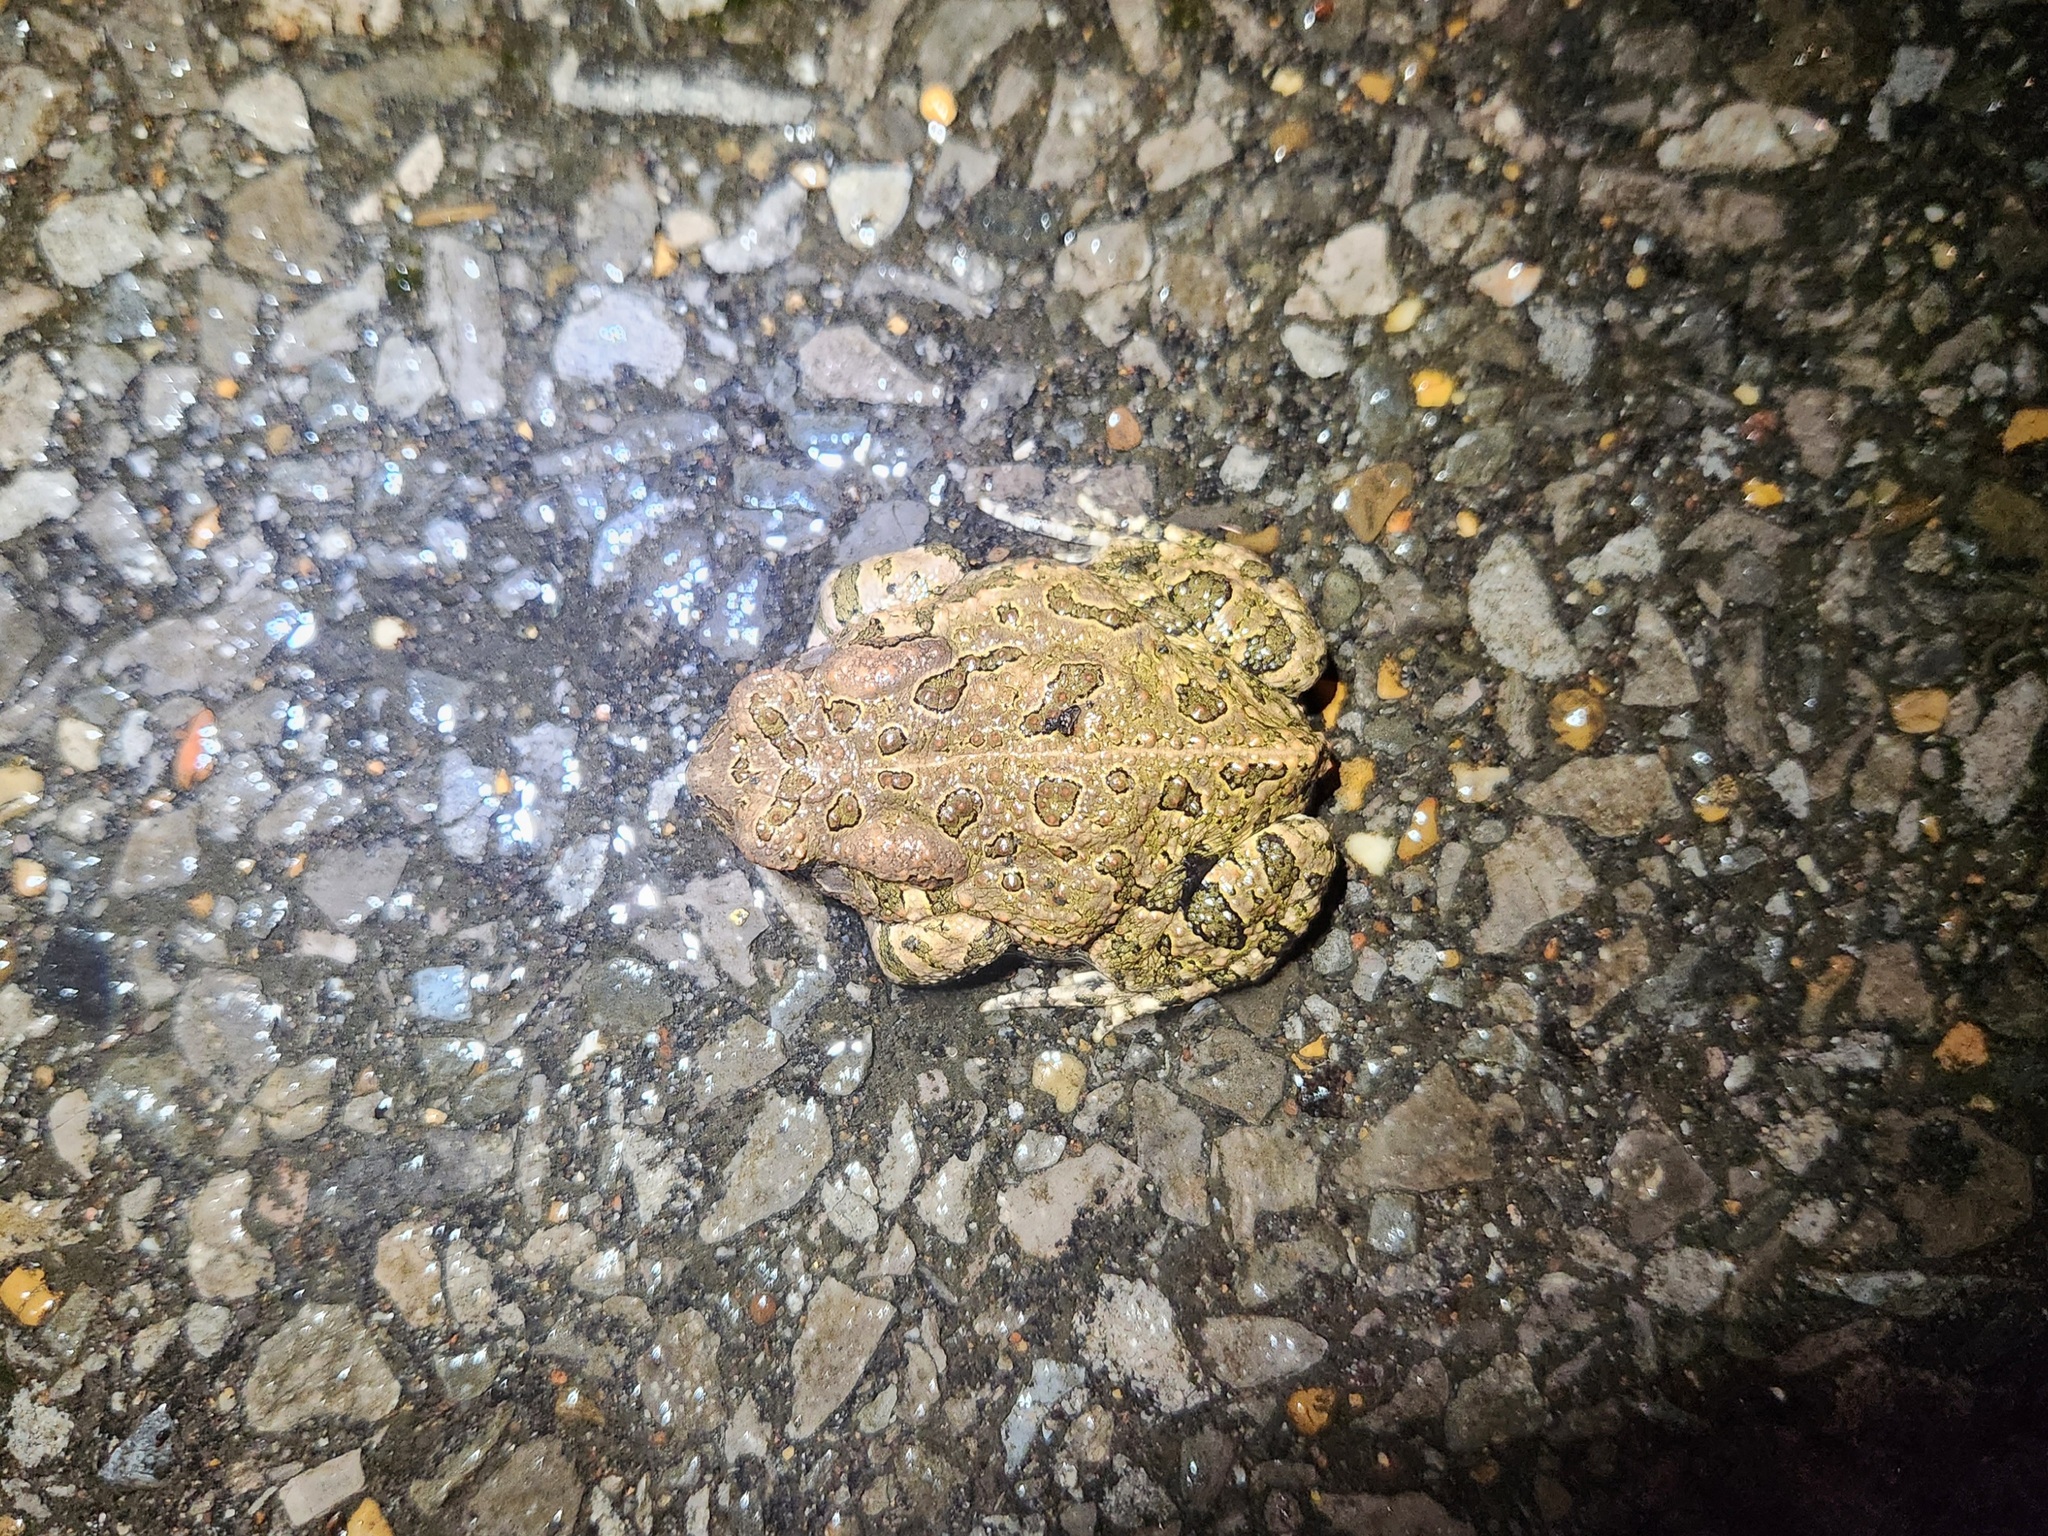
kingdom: Animalia
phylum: Chordata
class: Amphibia
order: Anura
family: Bufonidae
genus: Anaxyrus
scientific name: Anaxyrus fowleri
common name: Fowler's toad
